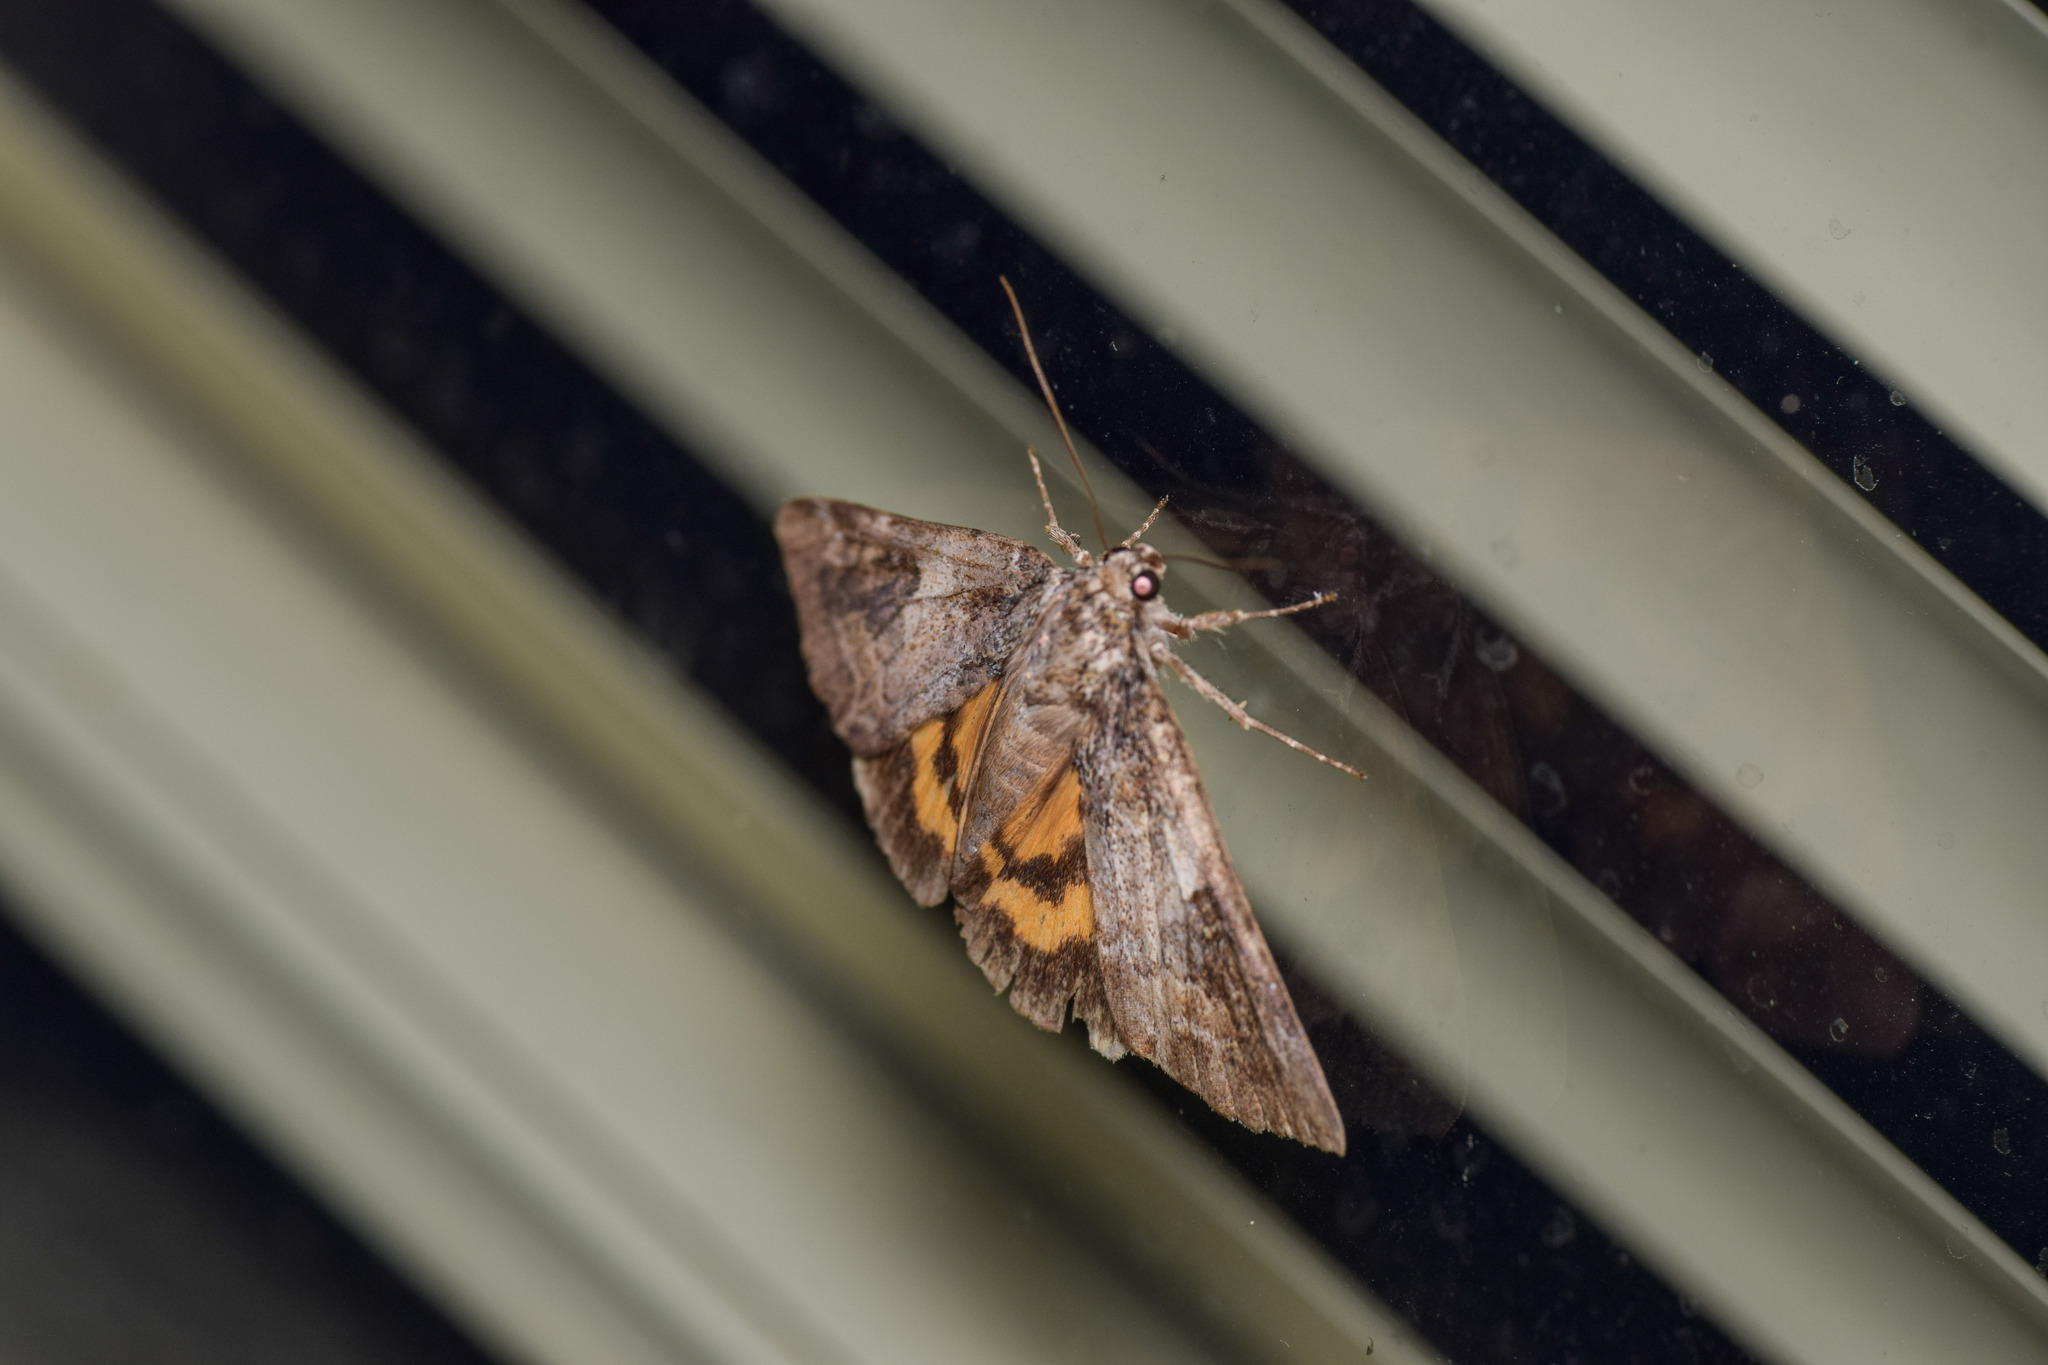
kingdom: Animalia
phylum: Arthropoda
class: Insecta
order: Lepidoptera
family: Erebidae
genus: Catocala
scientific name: Catocala micronympha
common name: Little nymph underwing
